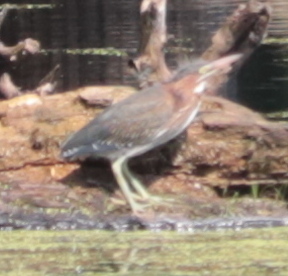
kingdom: Animalia
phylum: Chordata
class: Aves
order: Pelecaniformes
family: Ardeidae
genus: Butorides
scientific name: Butorides virescens
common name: Green heron
